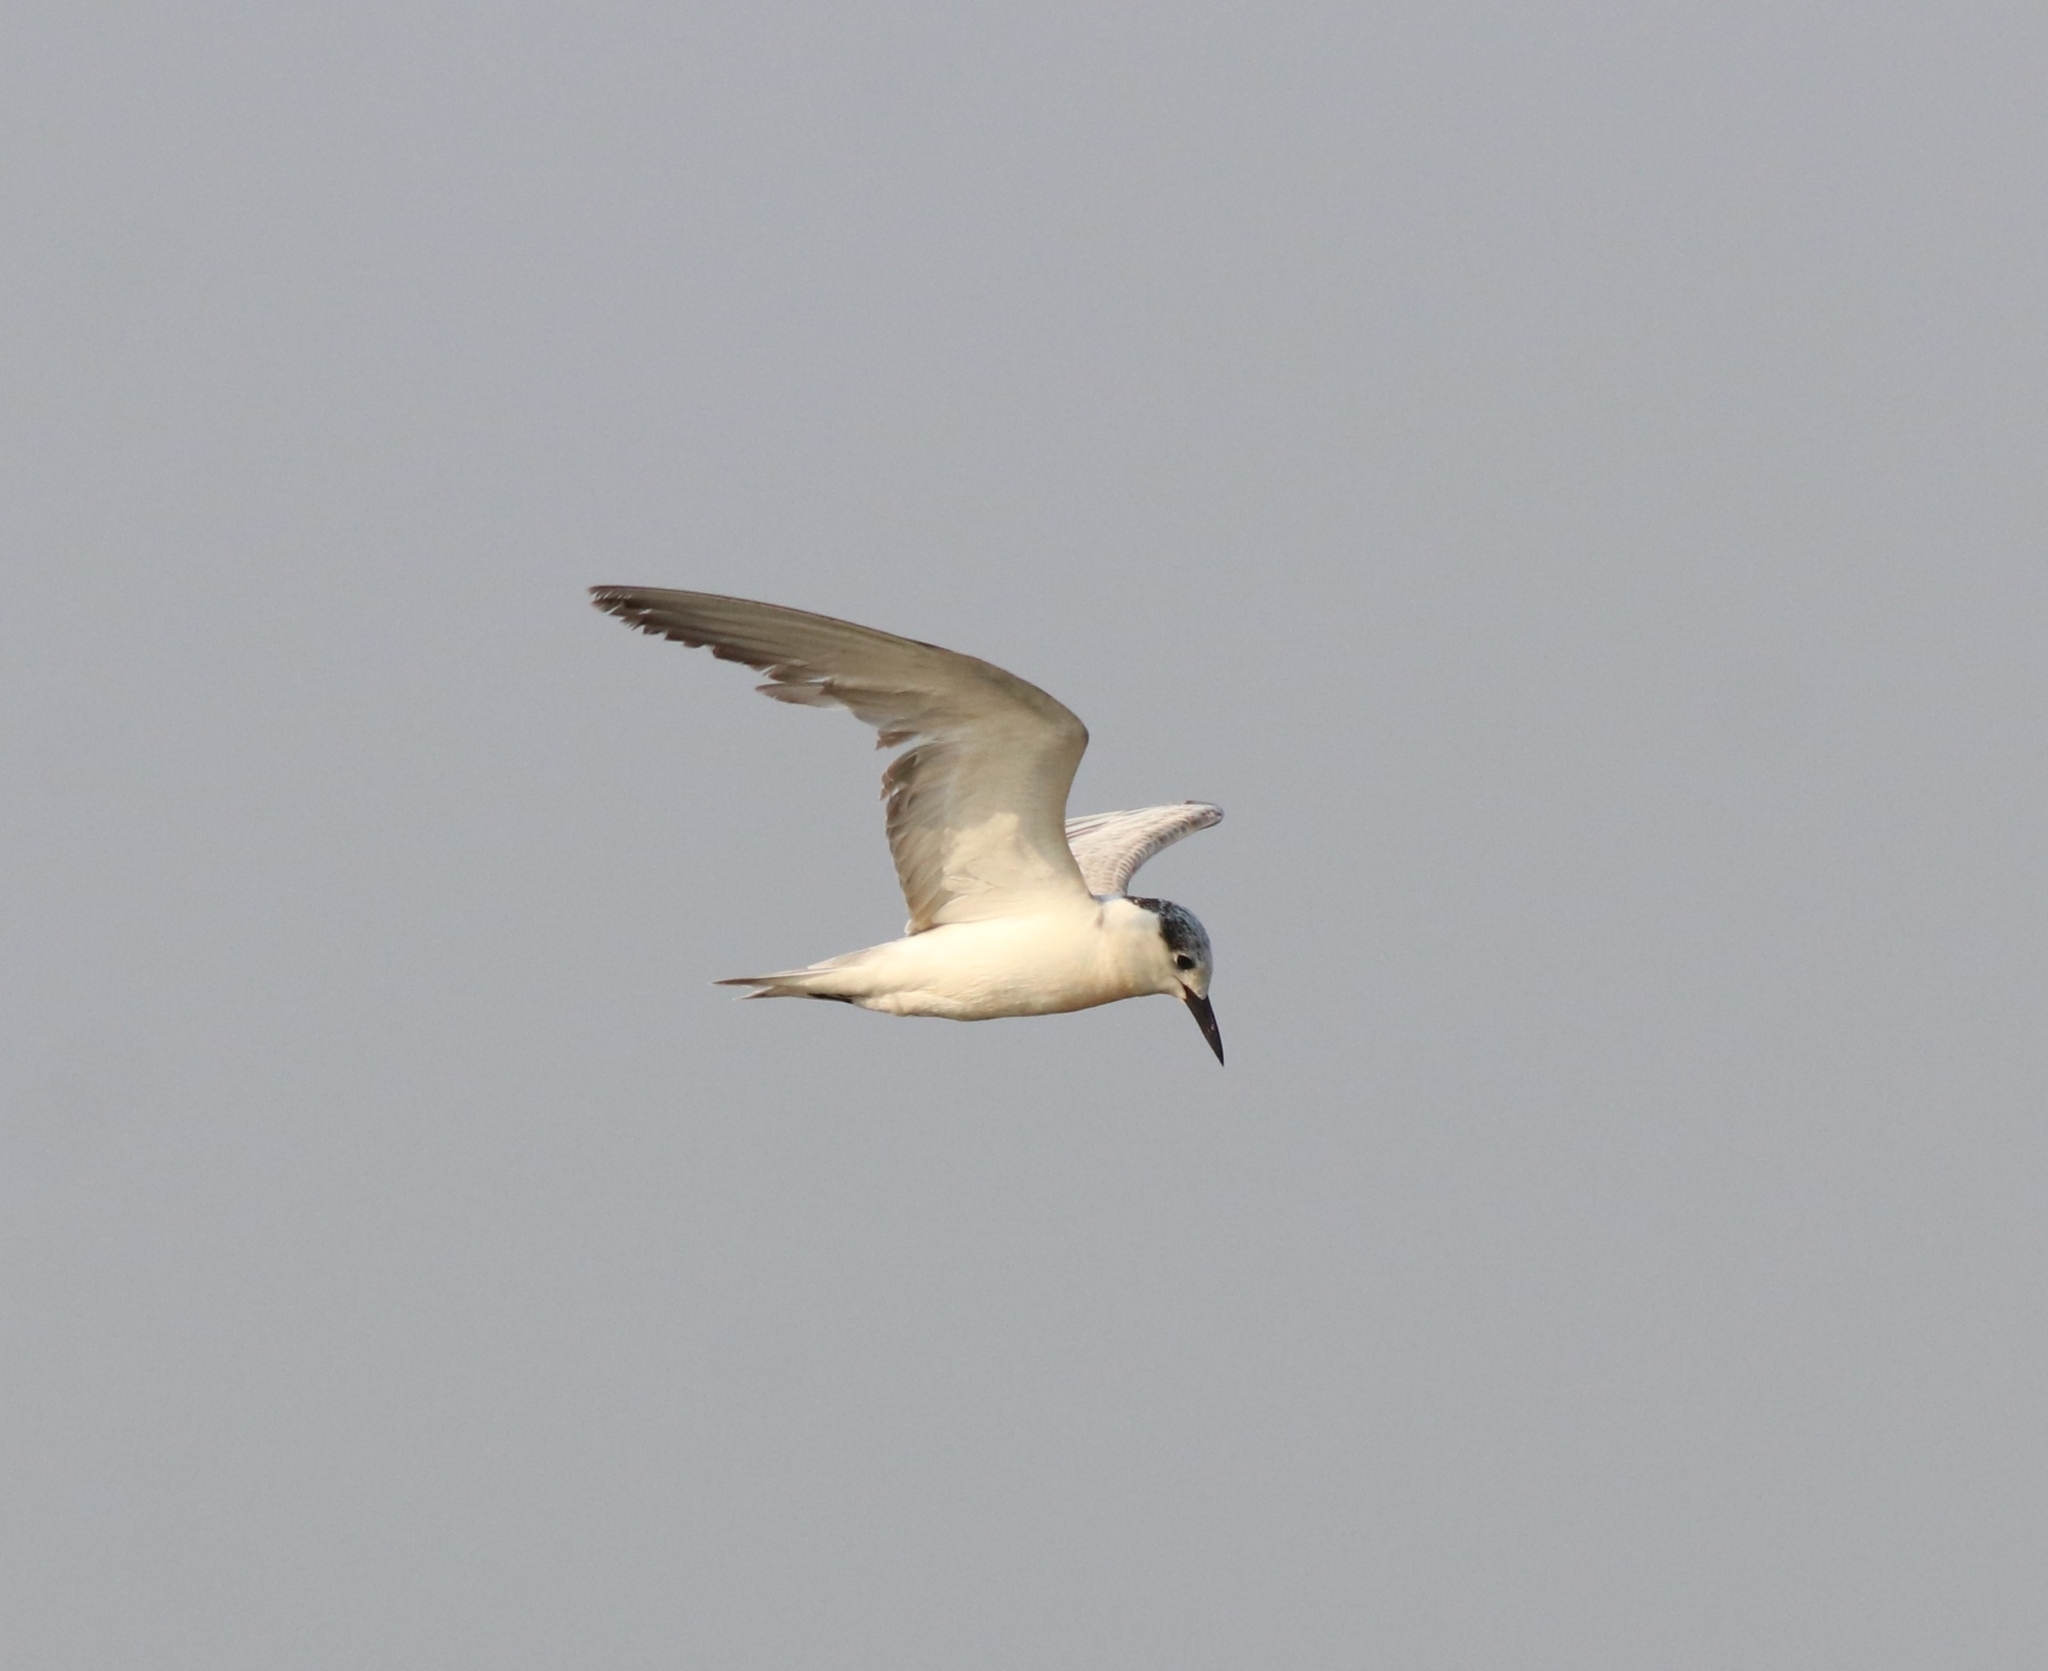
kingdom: Animalia
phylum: Chordata
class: Aves
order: Charadriiformes
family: Laridae
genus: Chlidonias
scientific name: Chlidonias hybrida
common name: Whiskered tern
